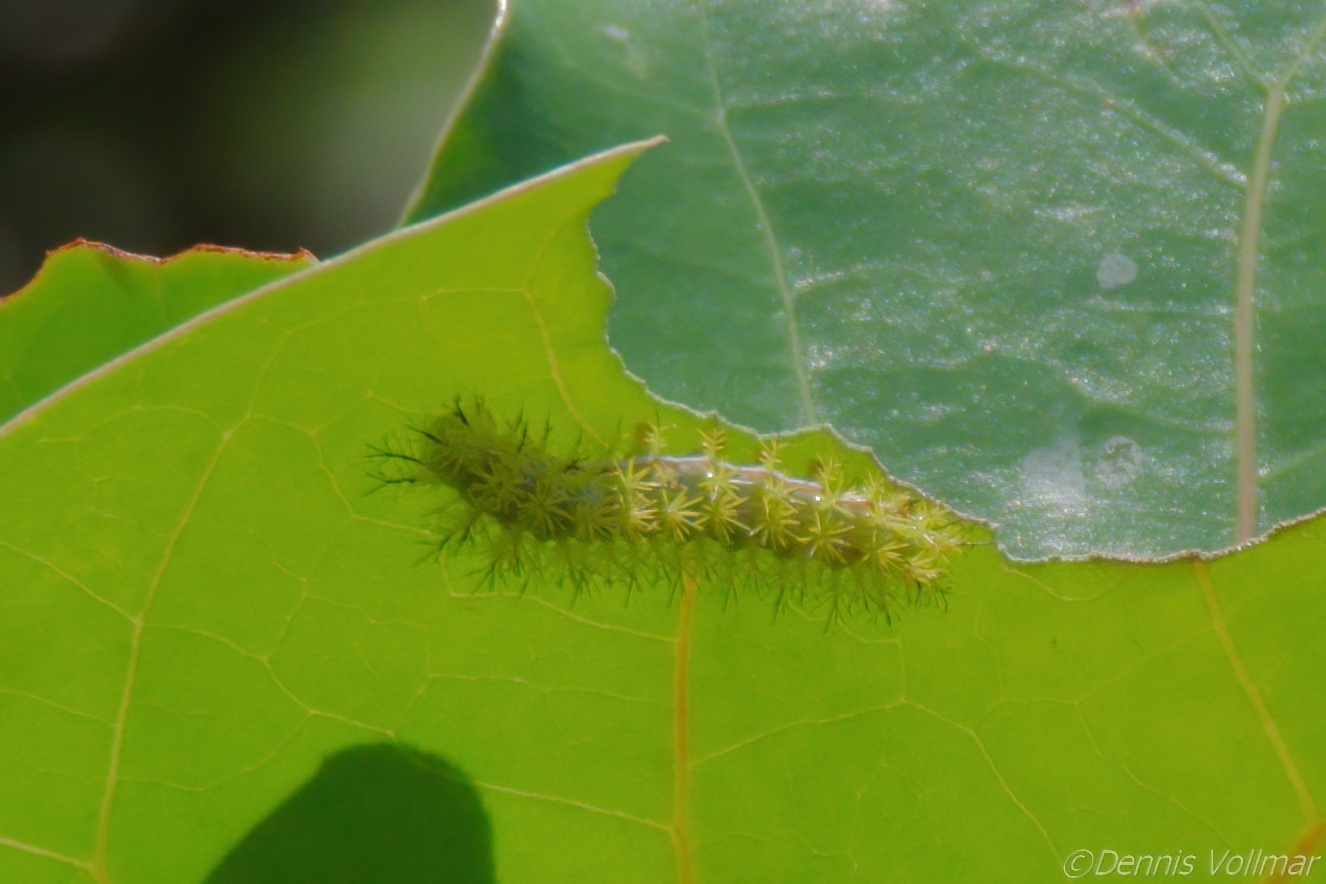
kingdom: Animalia
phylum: Arthropoda
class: Insecta
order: Lepidoptera
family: Saturniidae
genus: Automeris
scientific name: Automeris io
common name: Io moth
